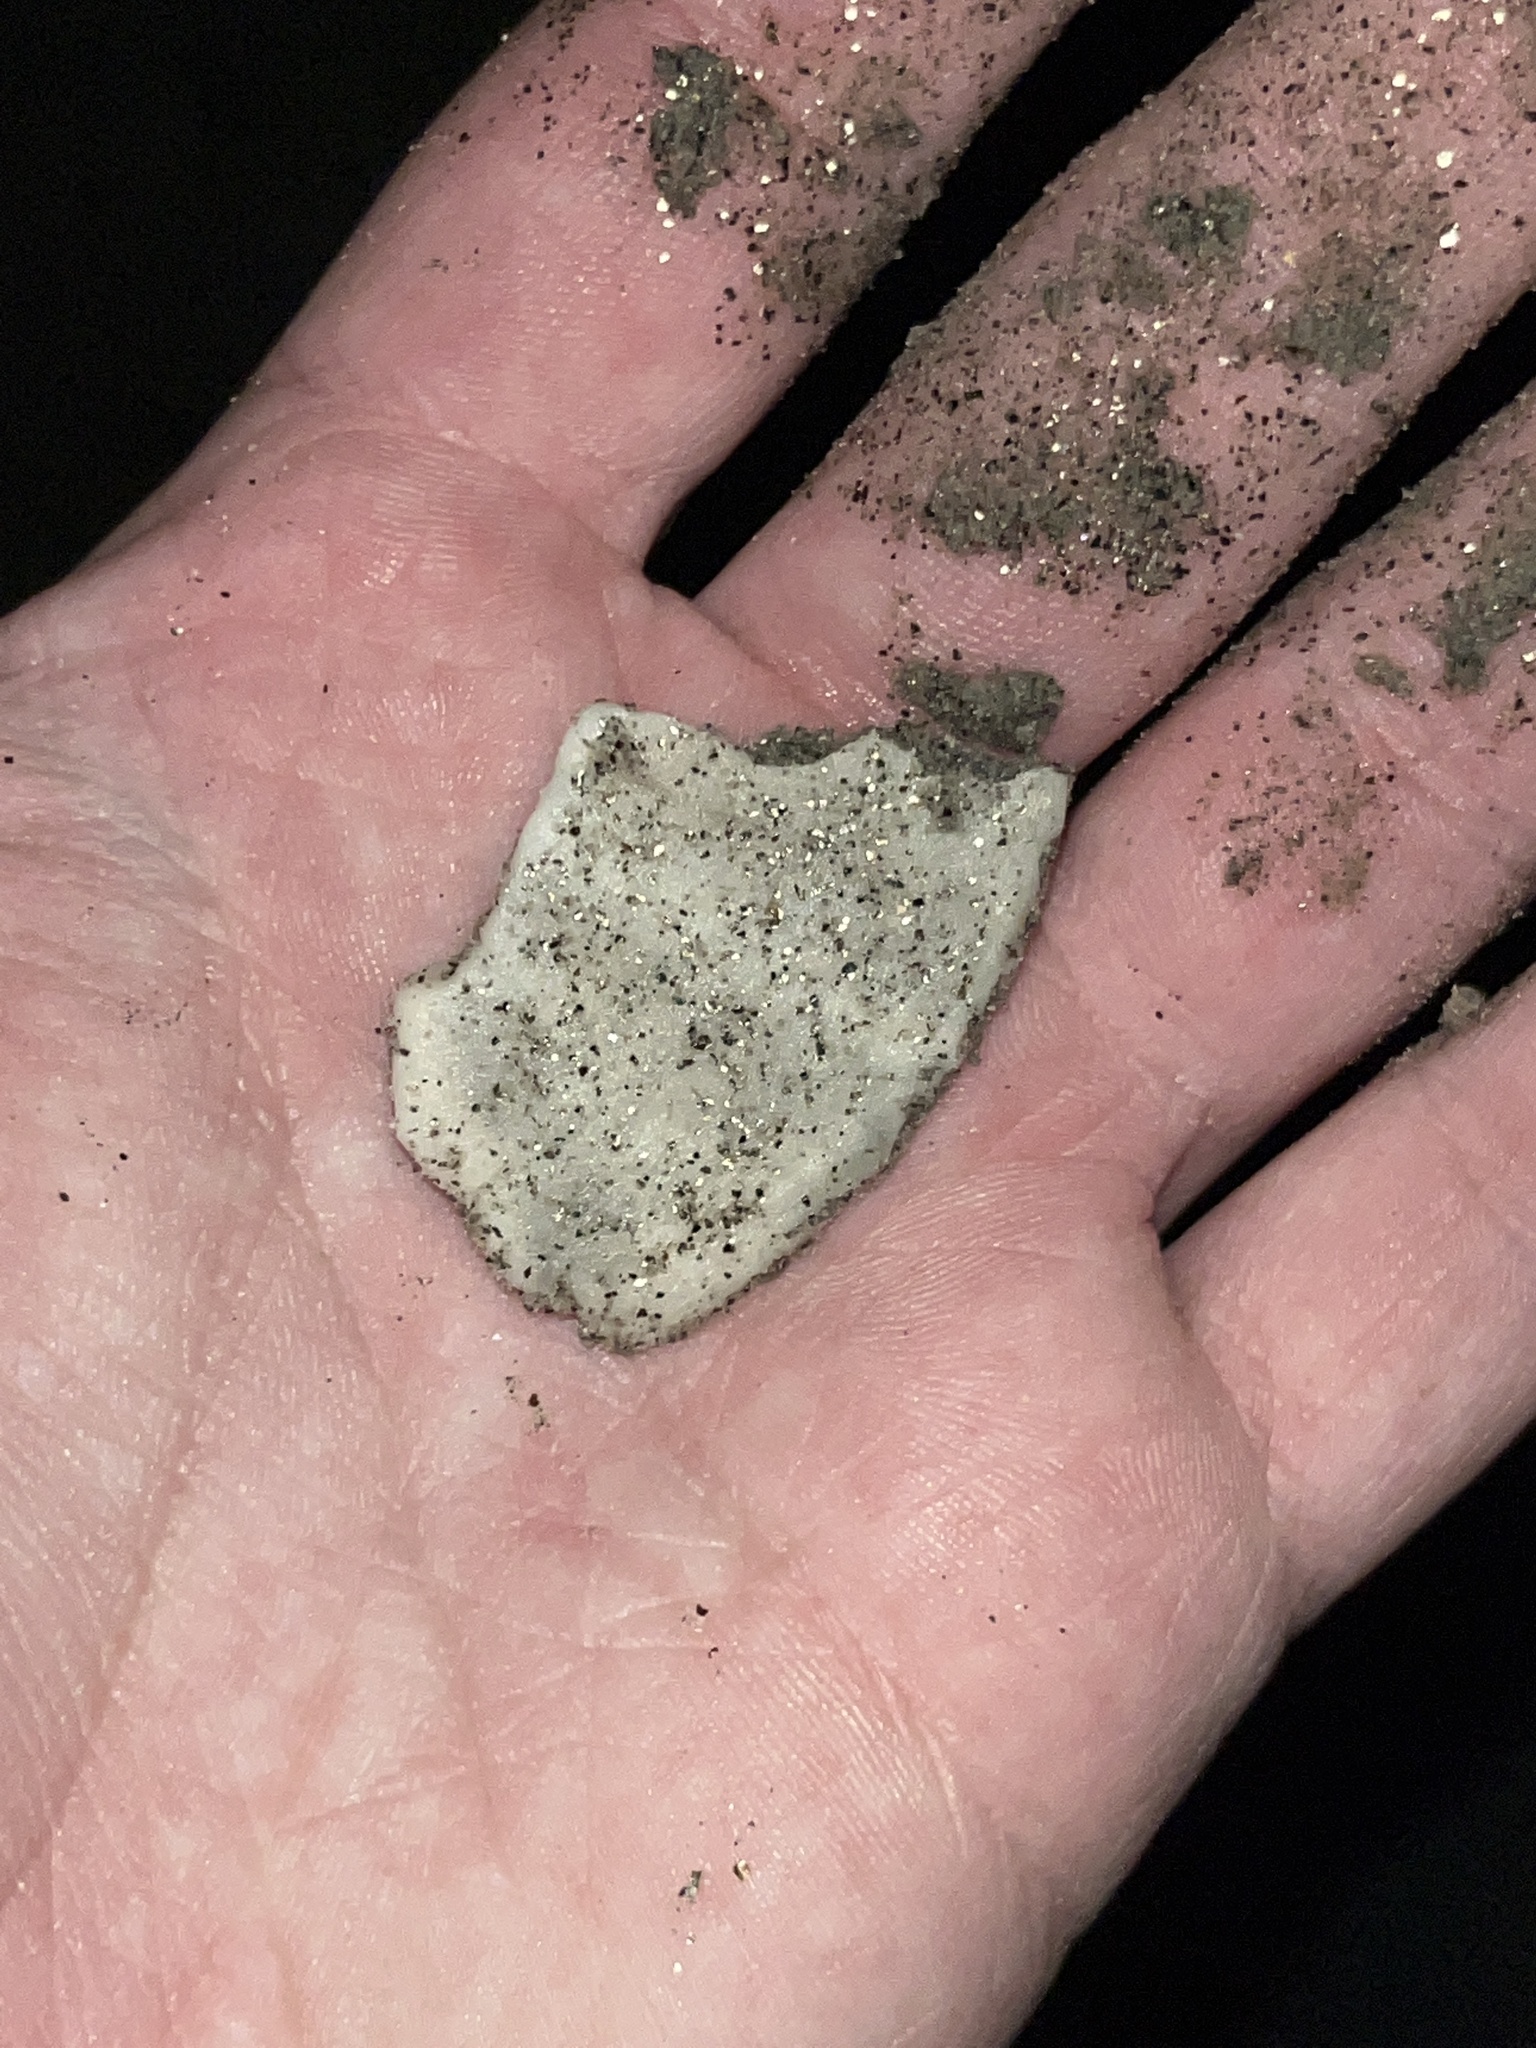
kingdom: Animalia
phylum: Echinodermata
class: Echinoidea
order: Echinolampadacea
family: Dendrasteridae
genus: Dendraster
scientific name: Dendraster excentricus
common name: Eccentric sand dollar sea urchin
